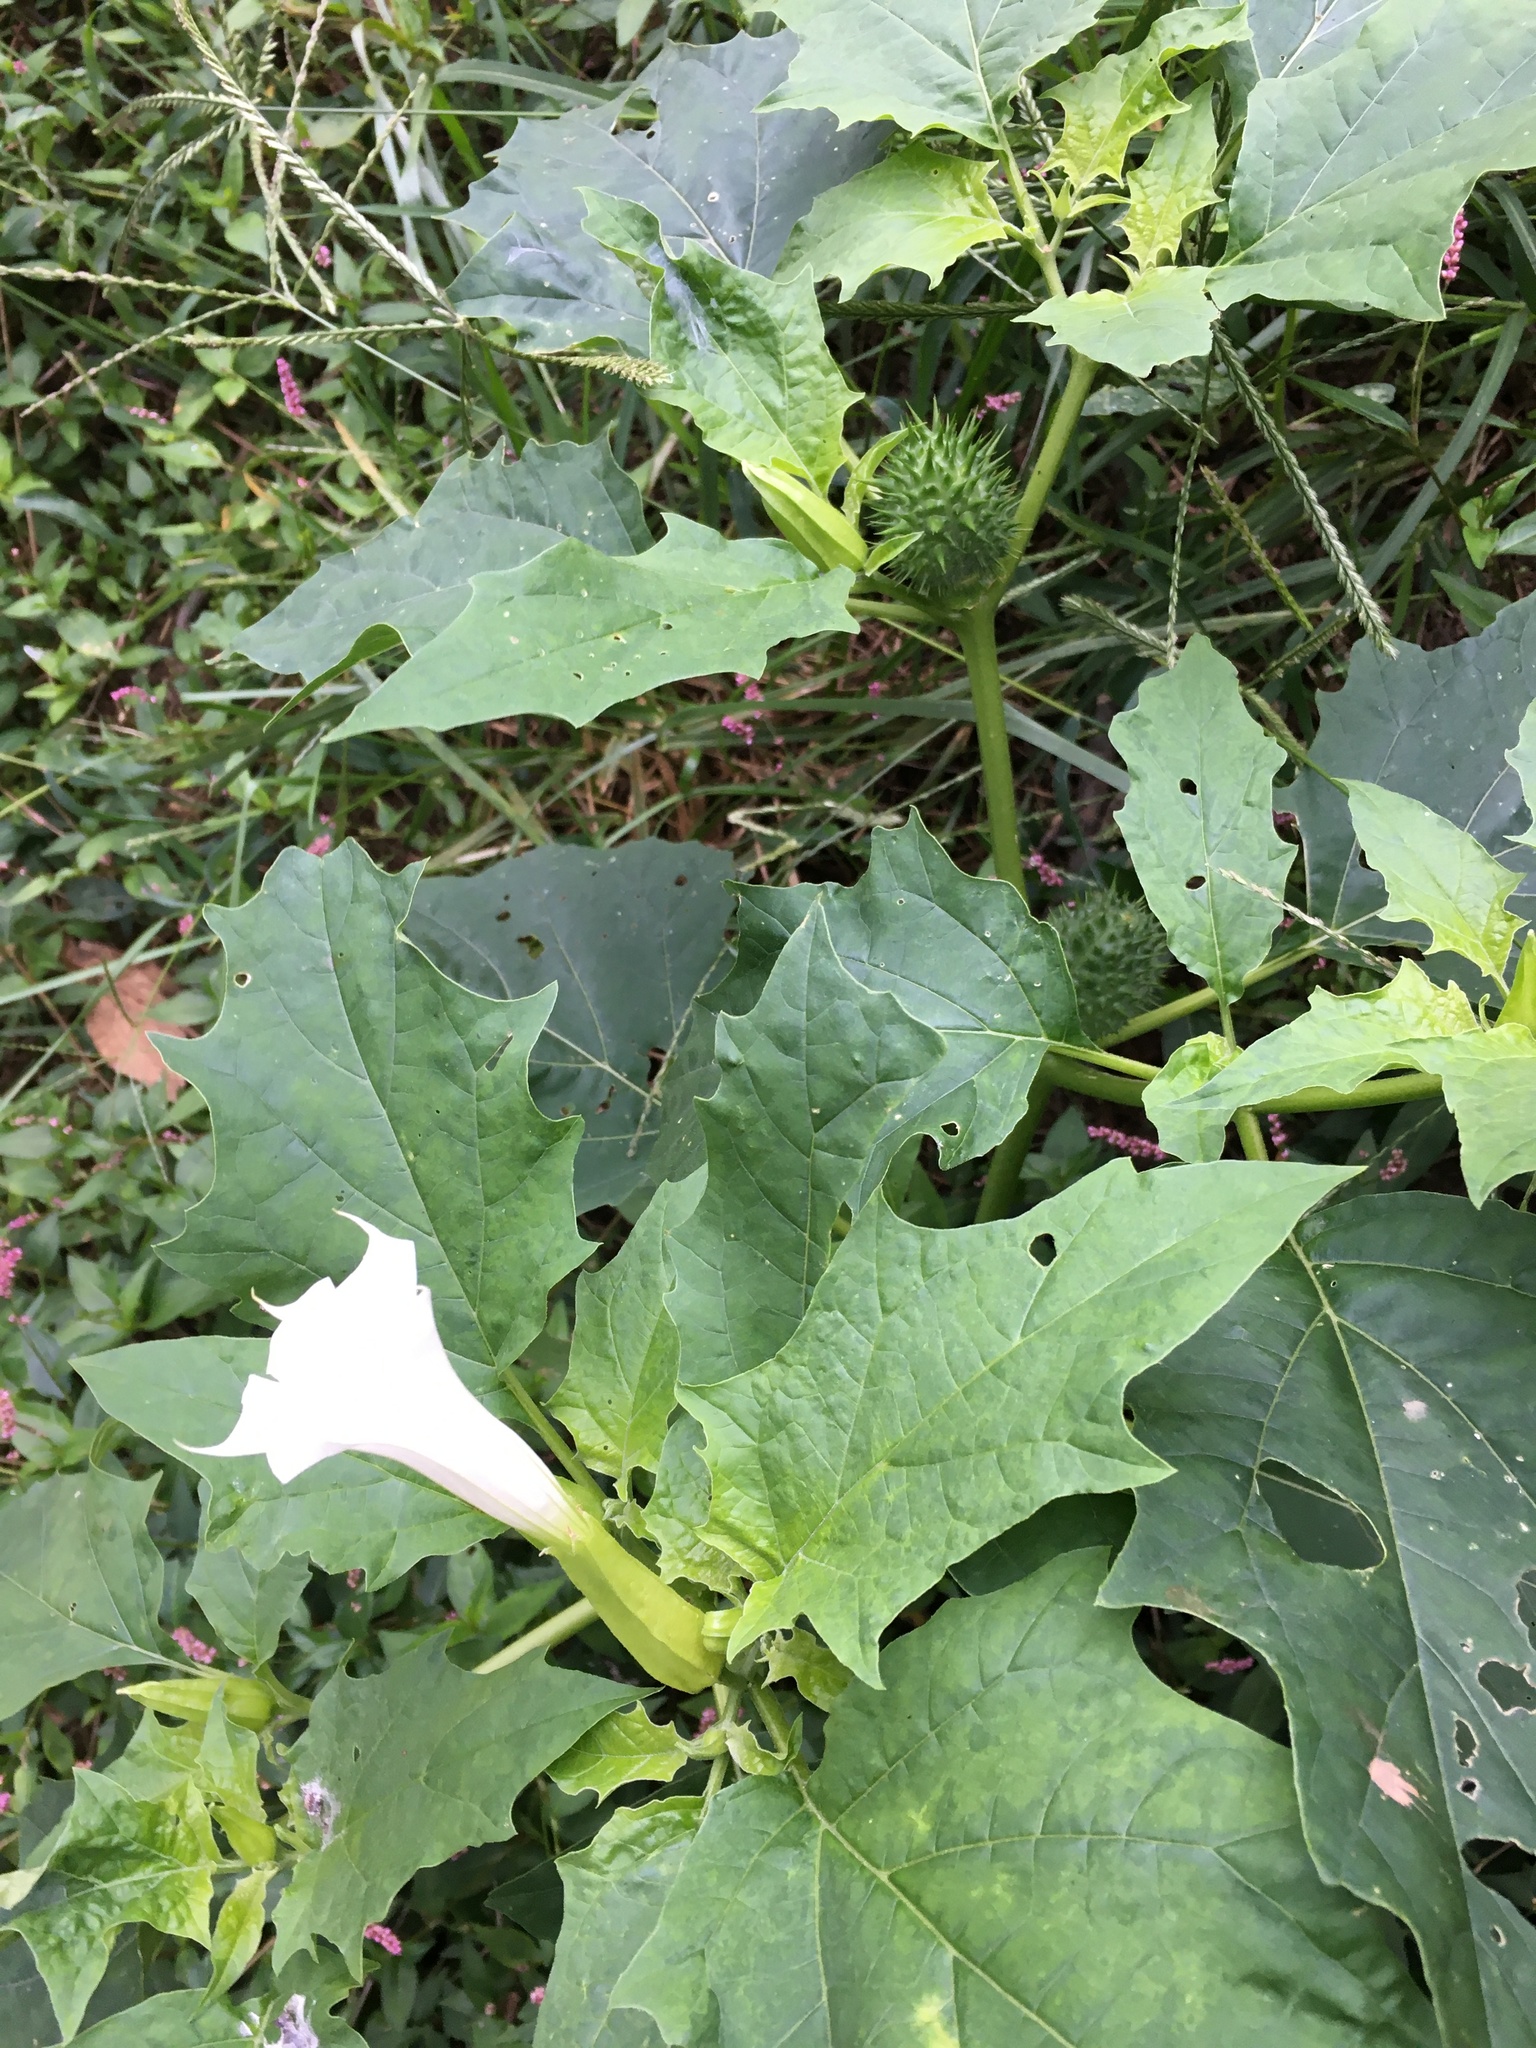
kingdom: Plantae
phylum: Tracheophyta
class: Magnoliopsida
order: Solanales
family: Solanaceae
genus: Datura
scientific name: Datura stramonium
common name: Thorn-apple
